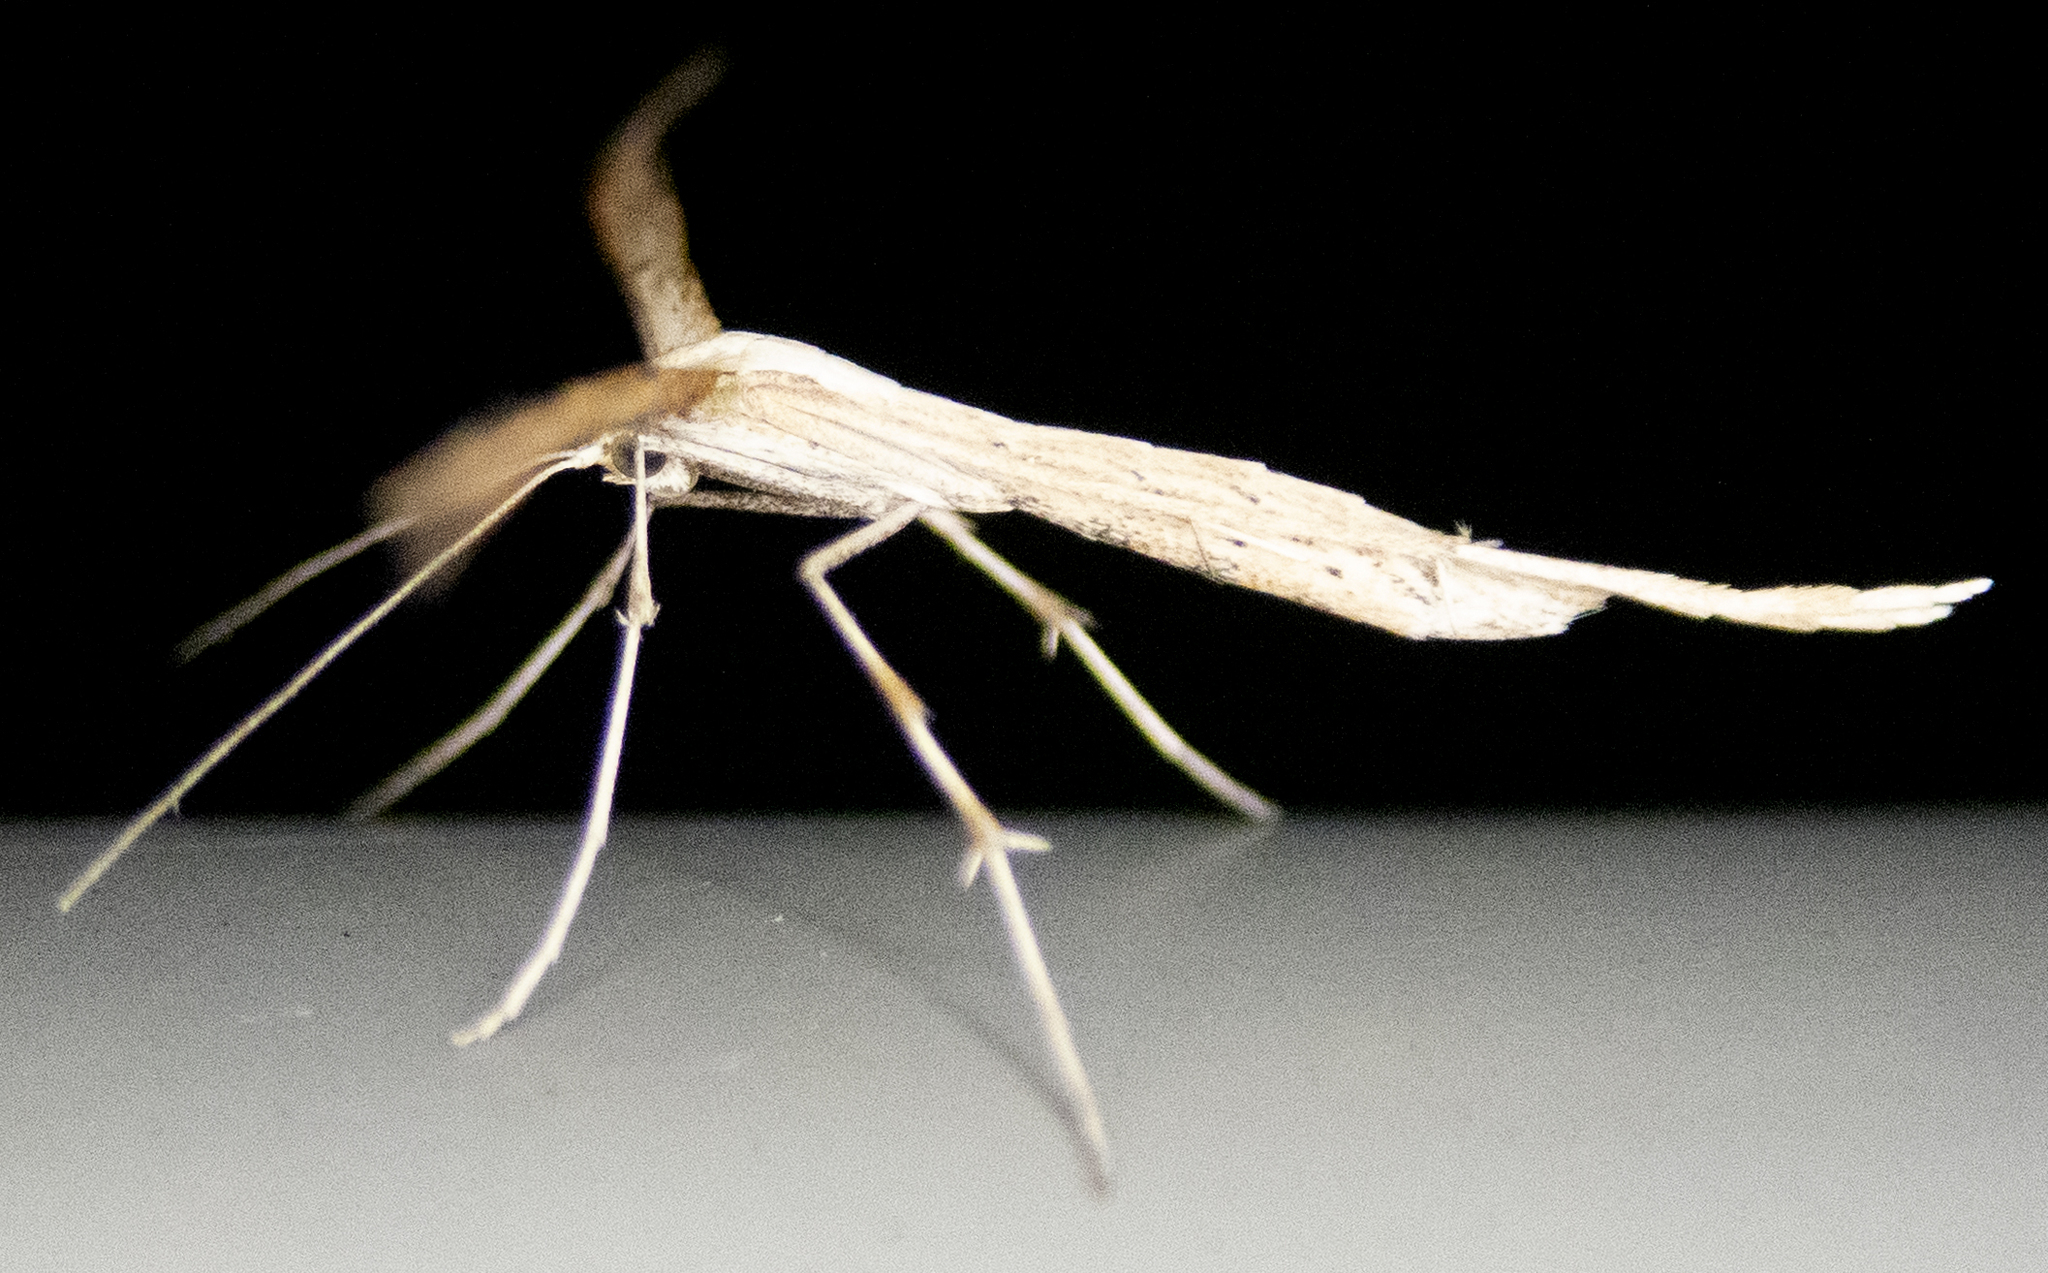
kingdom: Animalia
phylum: Arthropoda
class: Insecta
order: Lepidoptera
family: Pterophoridae
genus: Emmelina
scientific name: Emmelina monodactyla
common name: Common plume
